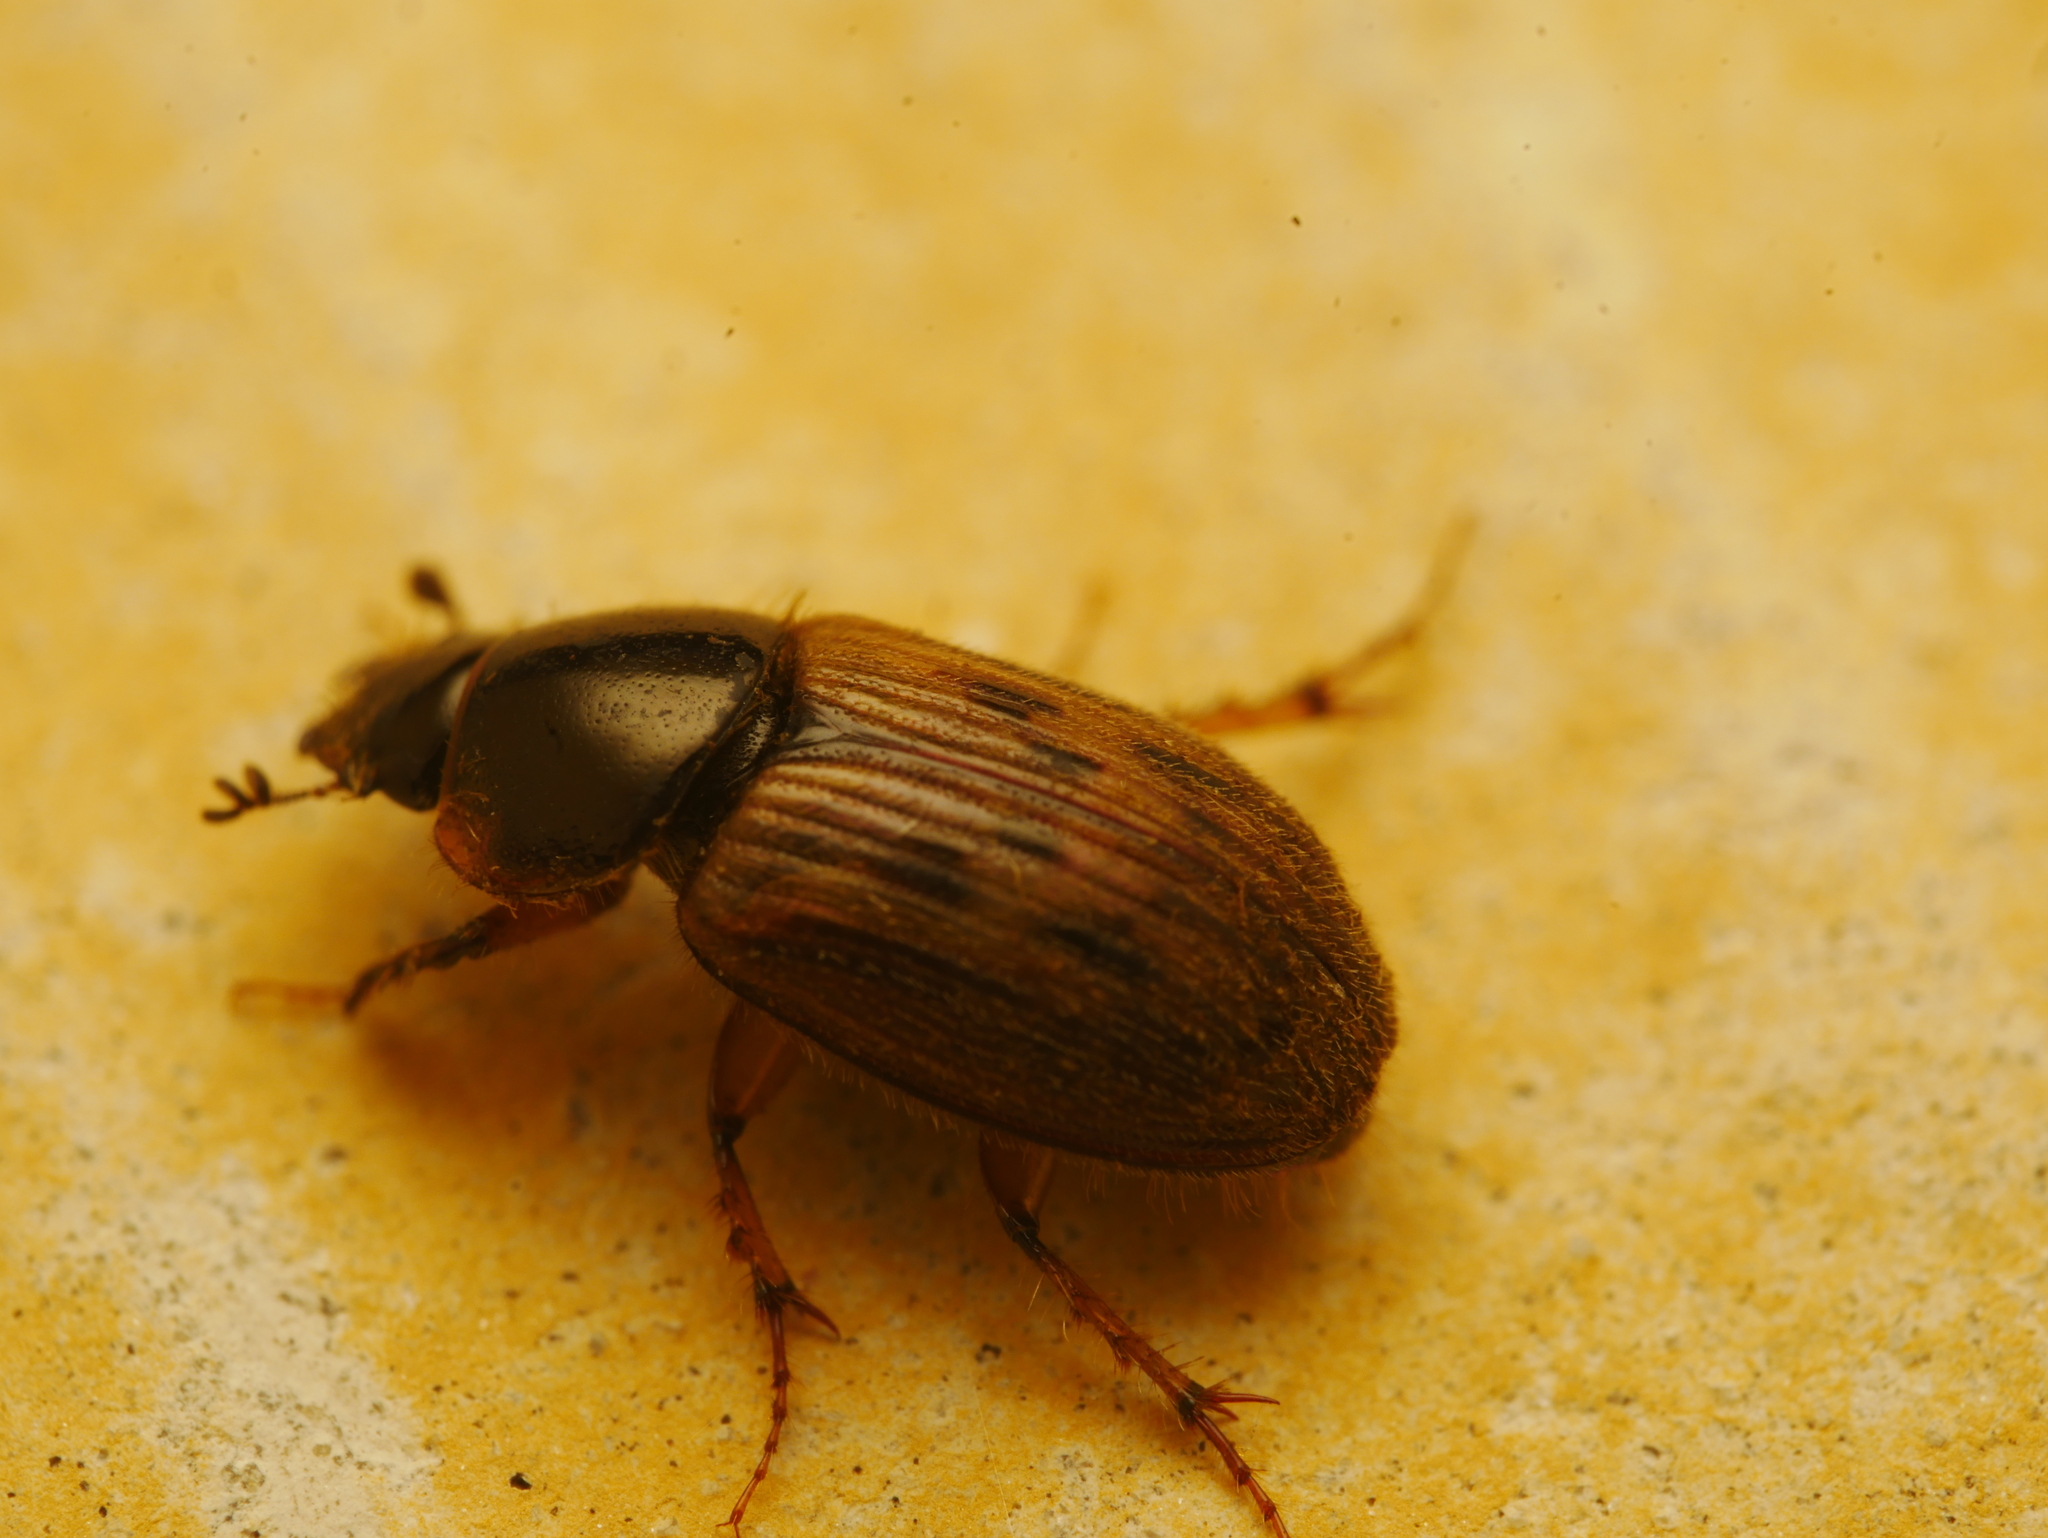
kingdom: Animalia
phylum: Arthropoda
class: Insecta
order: Coleoptera
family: Scarabaeidae
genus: Nimbus
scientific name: Nimbus contaminatus
